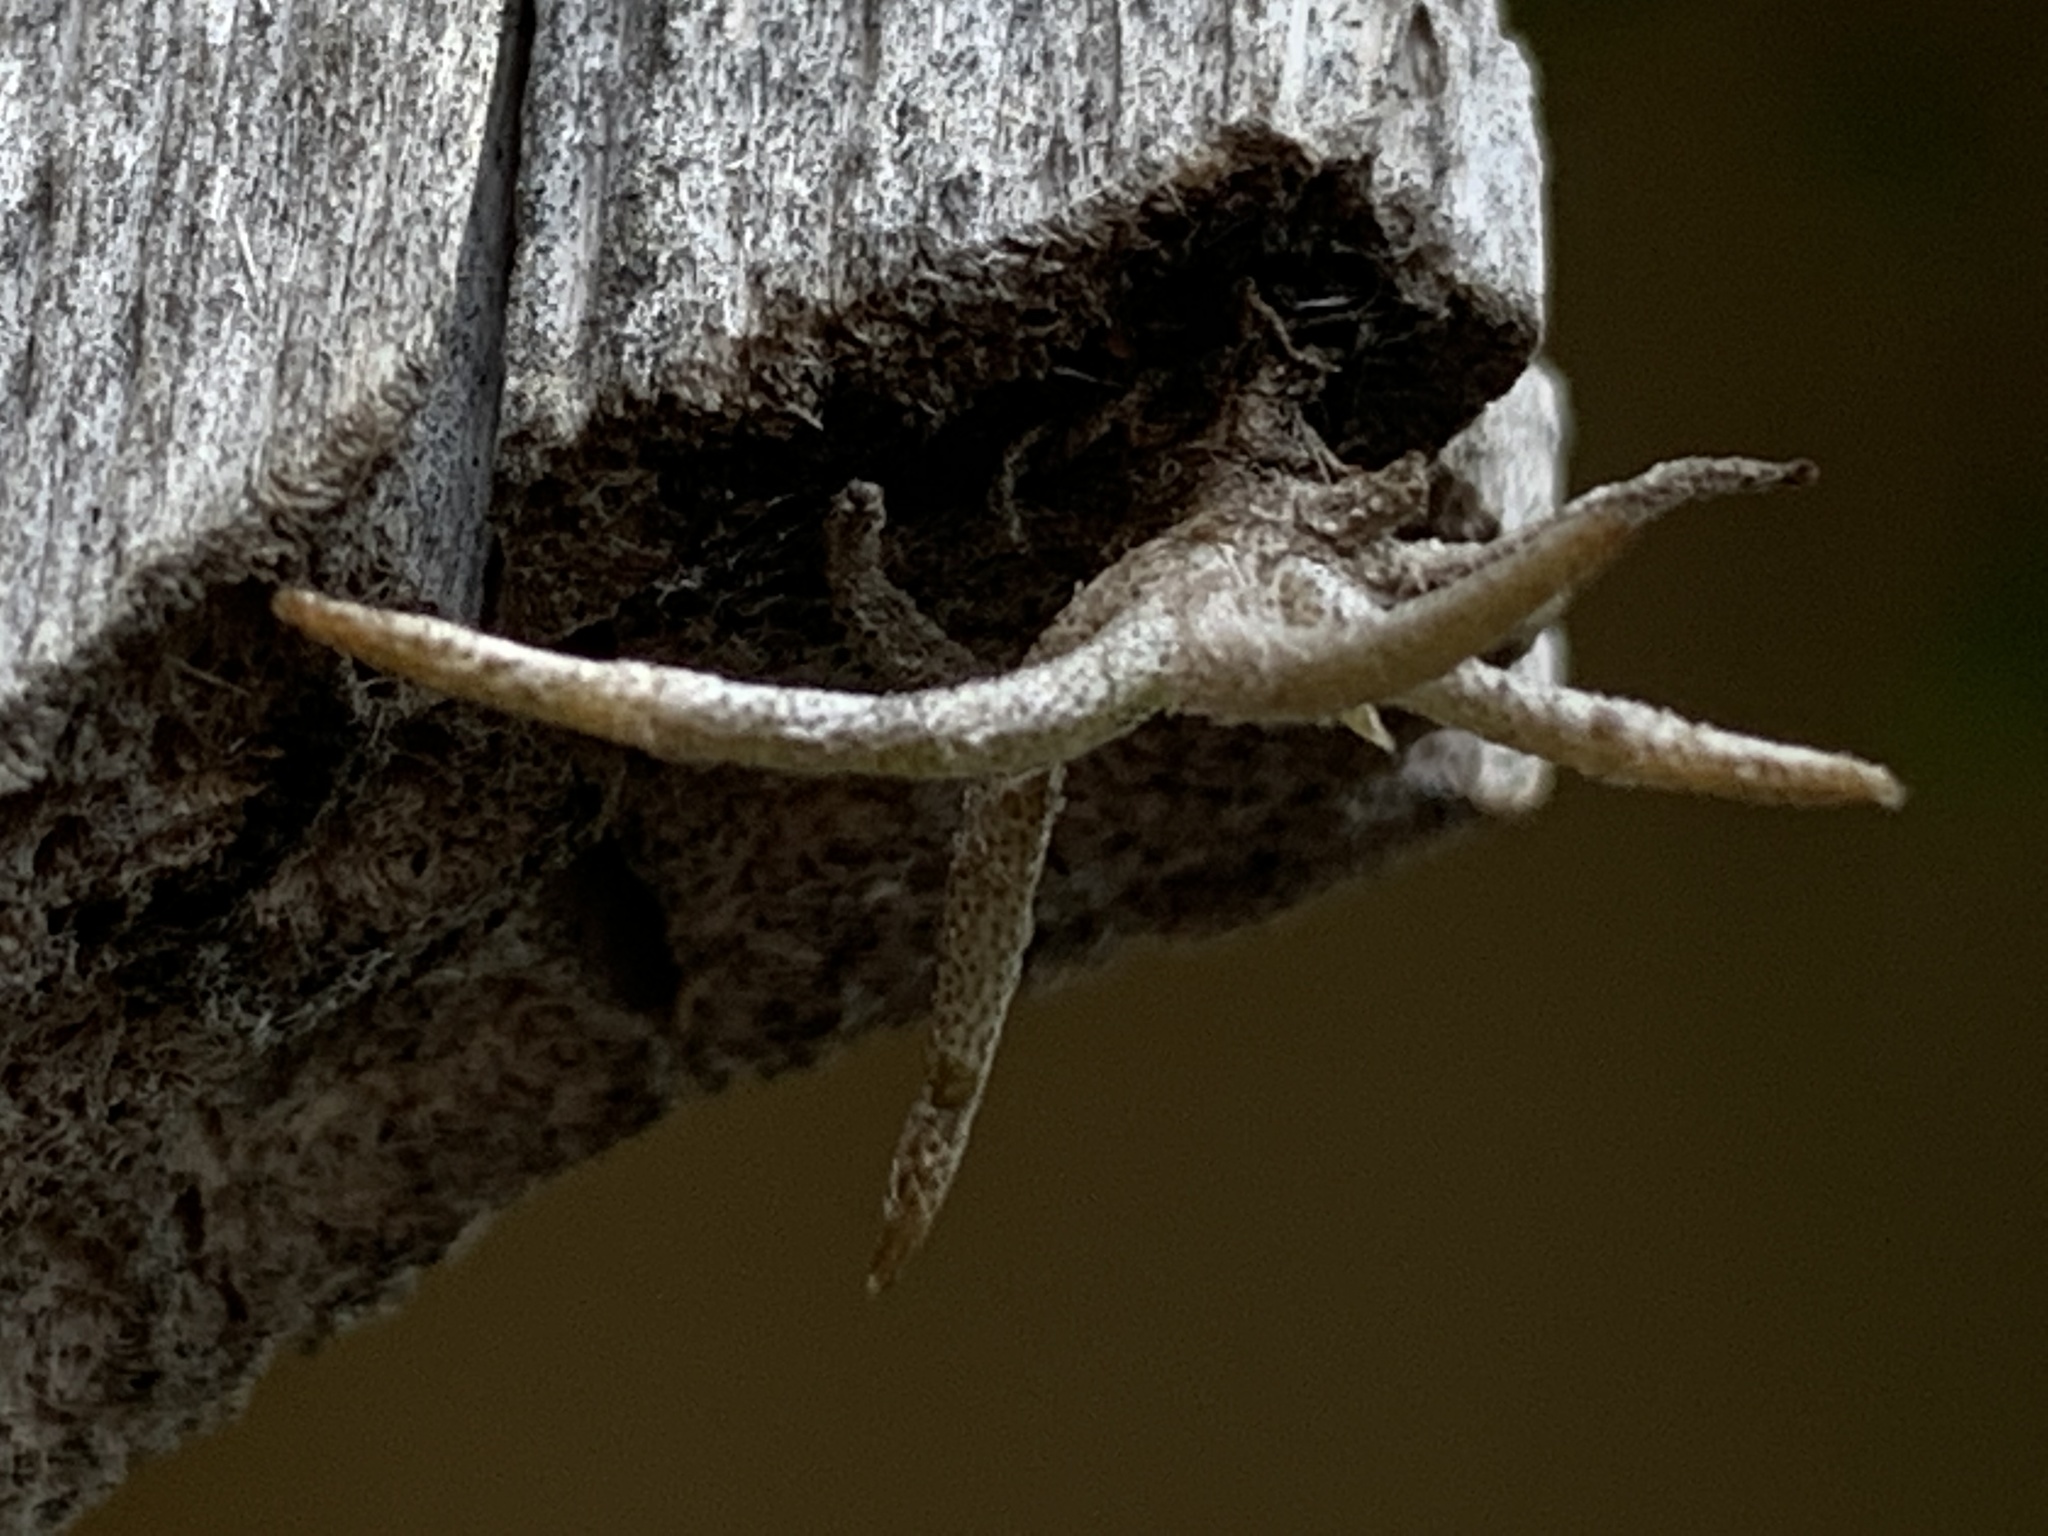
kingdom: Plantae
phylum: Tracheophyta
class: Liliopsida
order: Poales
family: Bromeliaceae
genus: Tillandsia
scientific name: Tillandsia recurvata
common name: Small ballmoss
